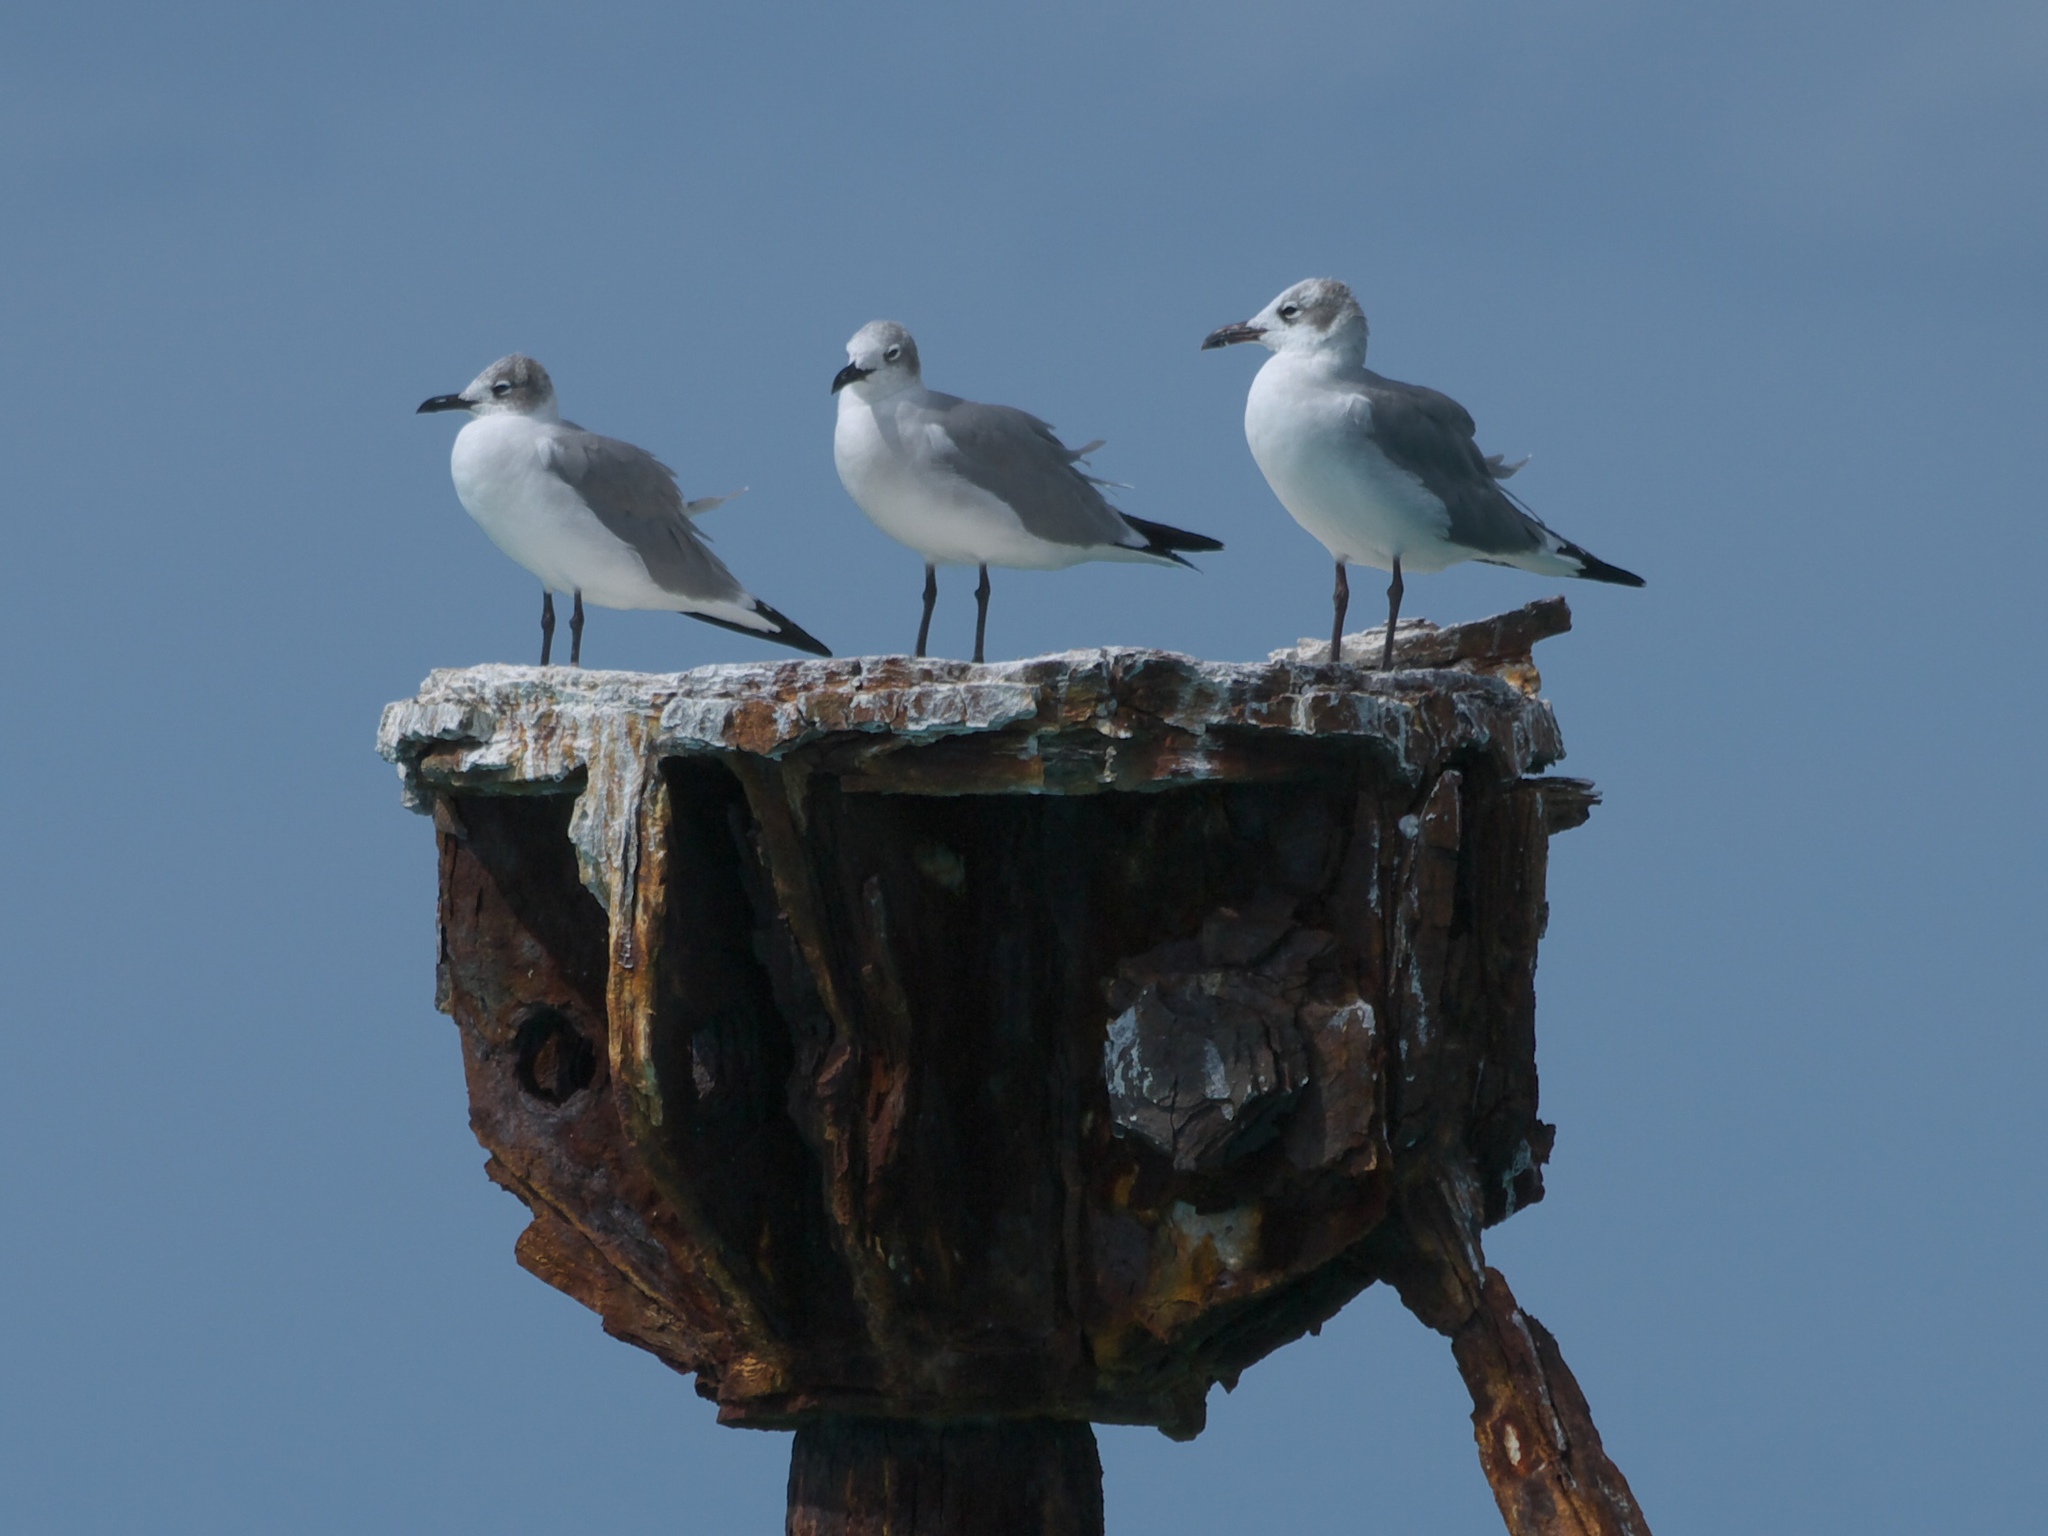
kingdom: Animalia
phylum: Chordata
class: Aves
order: Charadriiformes
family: Laridae
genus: Leucophaeus
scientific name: Leucophaeus atricilla
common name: Laughing gull
